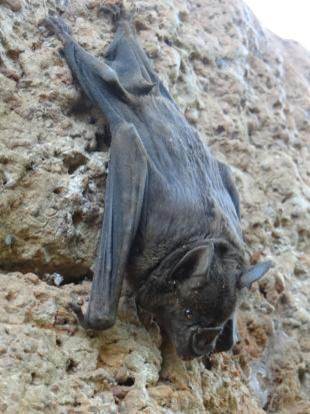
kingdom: Animalia
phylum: Chordata
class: Mammalia
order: Chiroptera
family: Phyllostomidae
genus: Phyllostomus
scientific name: Phyllostomus hastatus
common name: Greater spear-nosed bat
